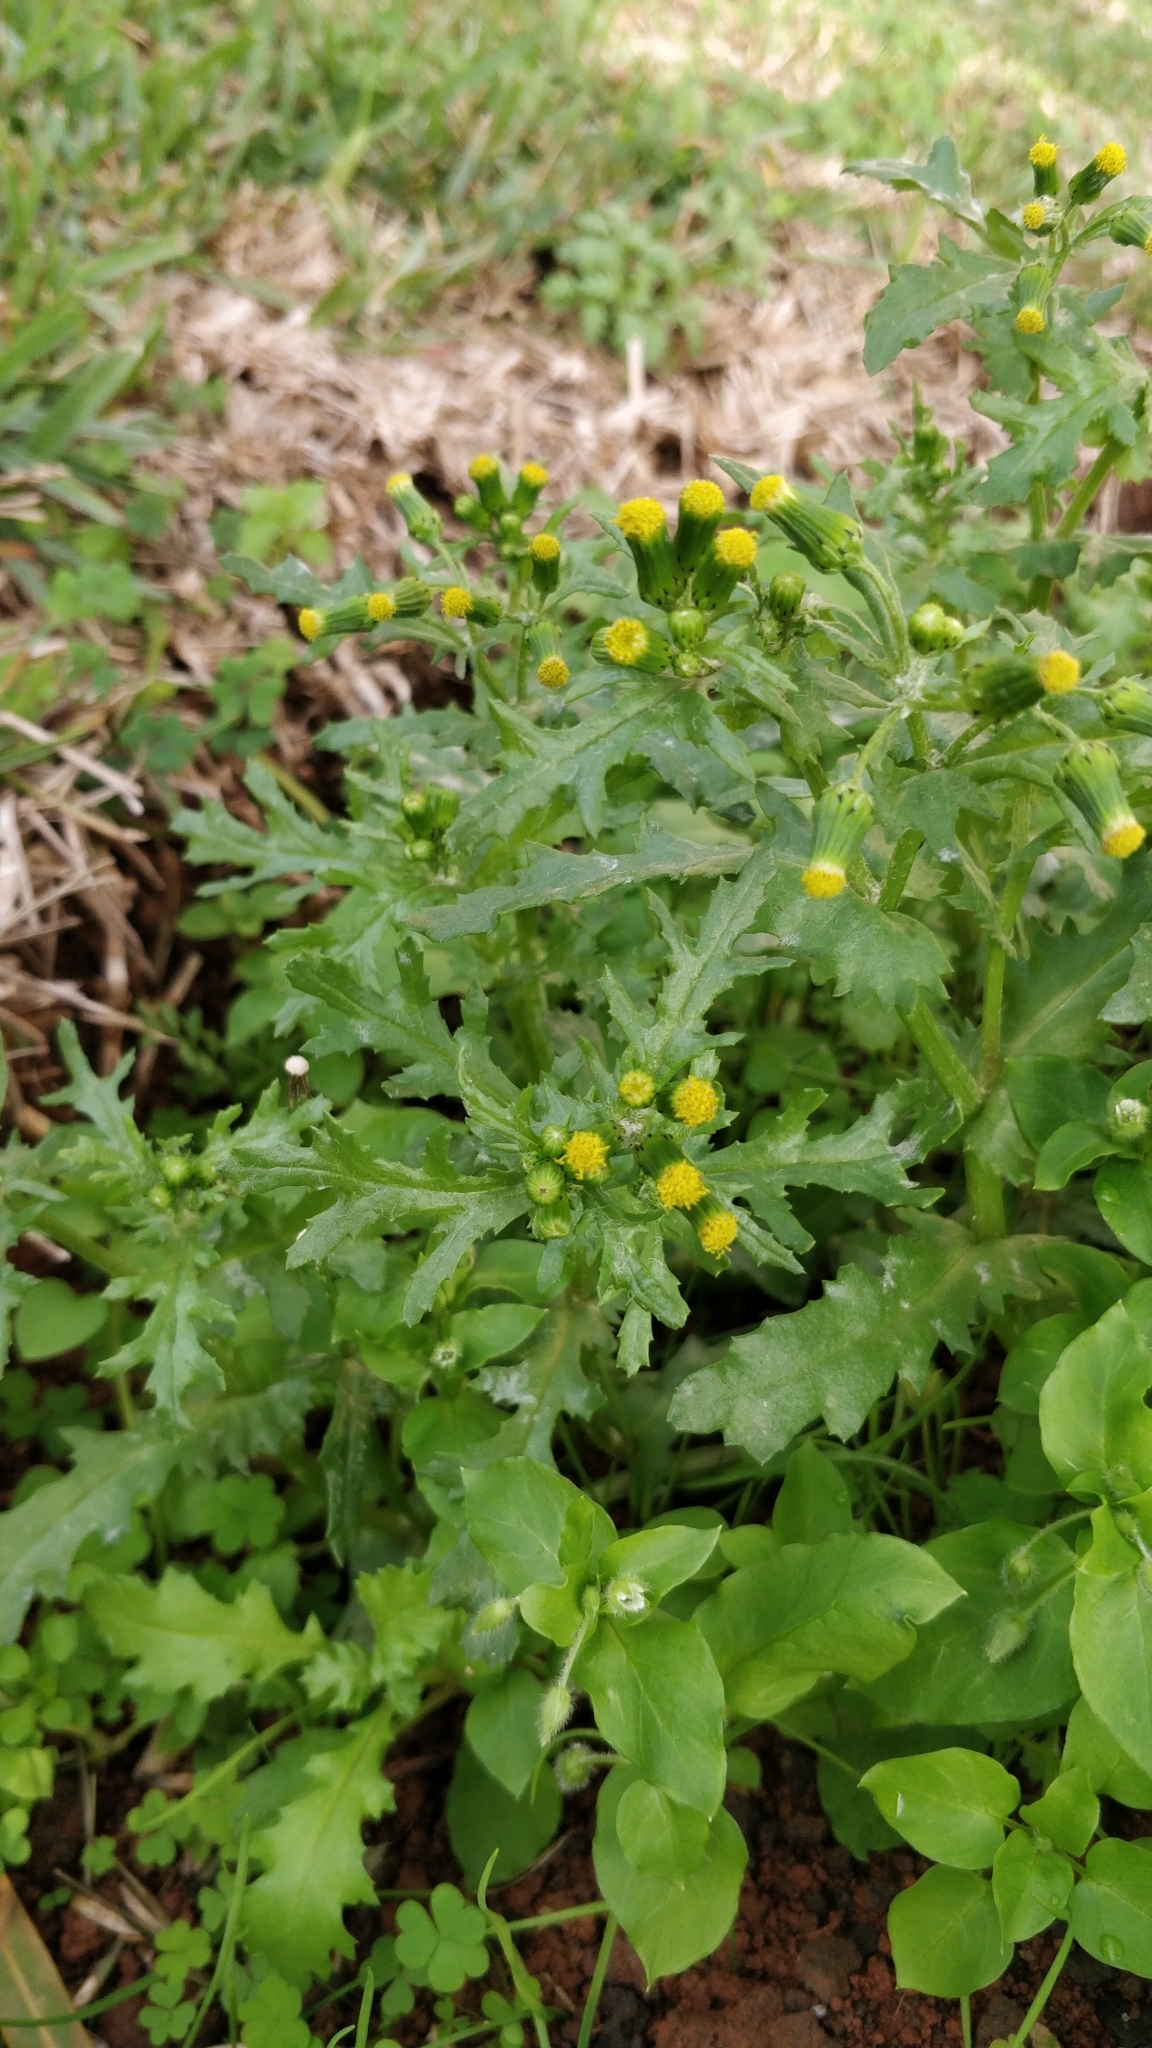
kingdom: Plantae
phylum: Tracheophyta
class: Magnoliopsida
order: Asterales
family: Asteraceae
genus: Senecio
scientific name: Senecio vulgaris
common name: Old-man-in-the-spring
